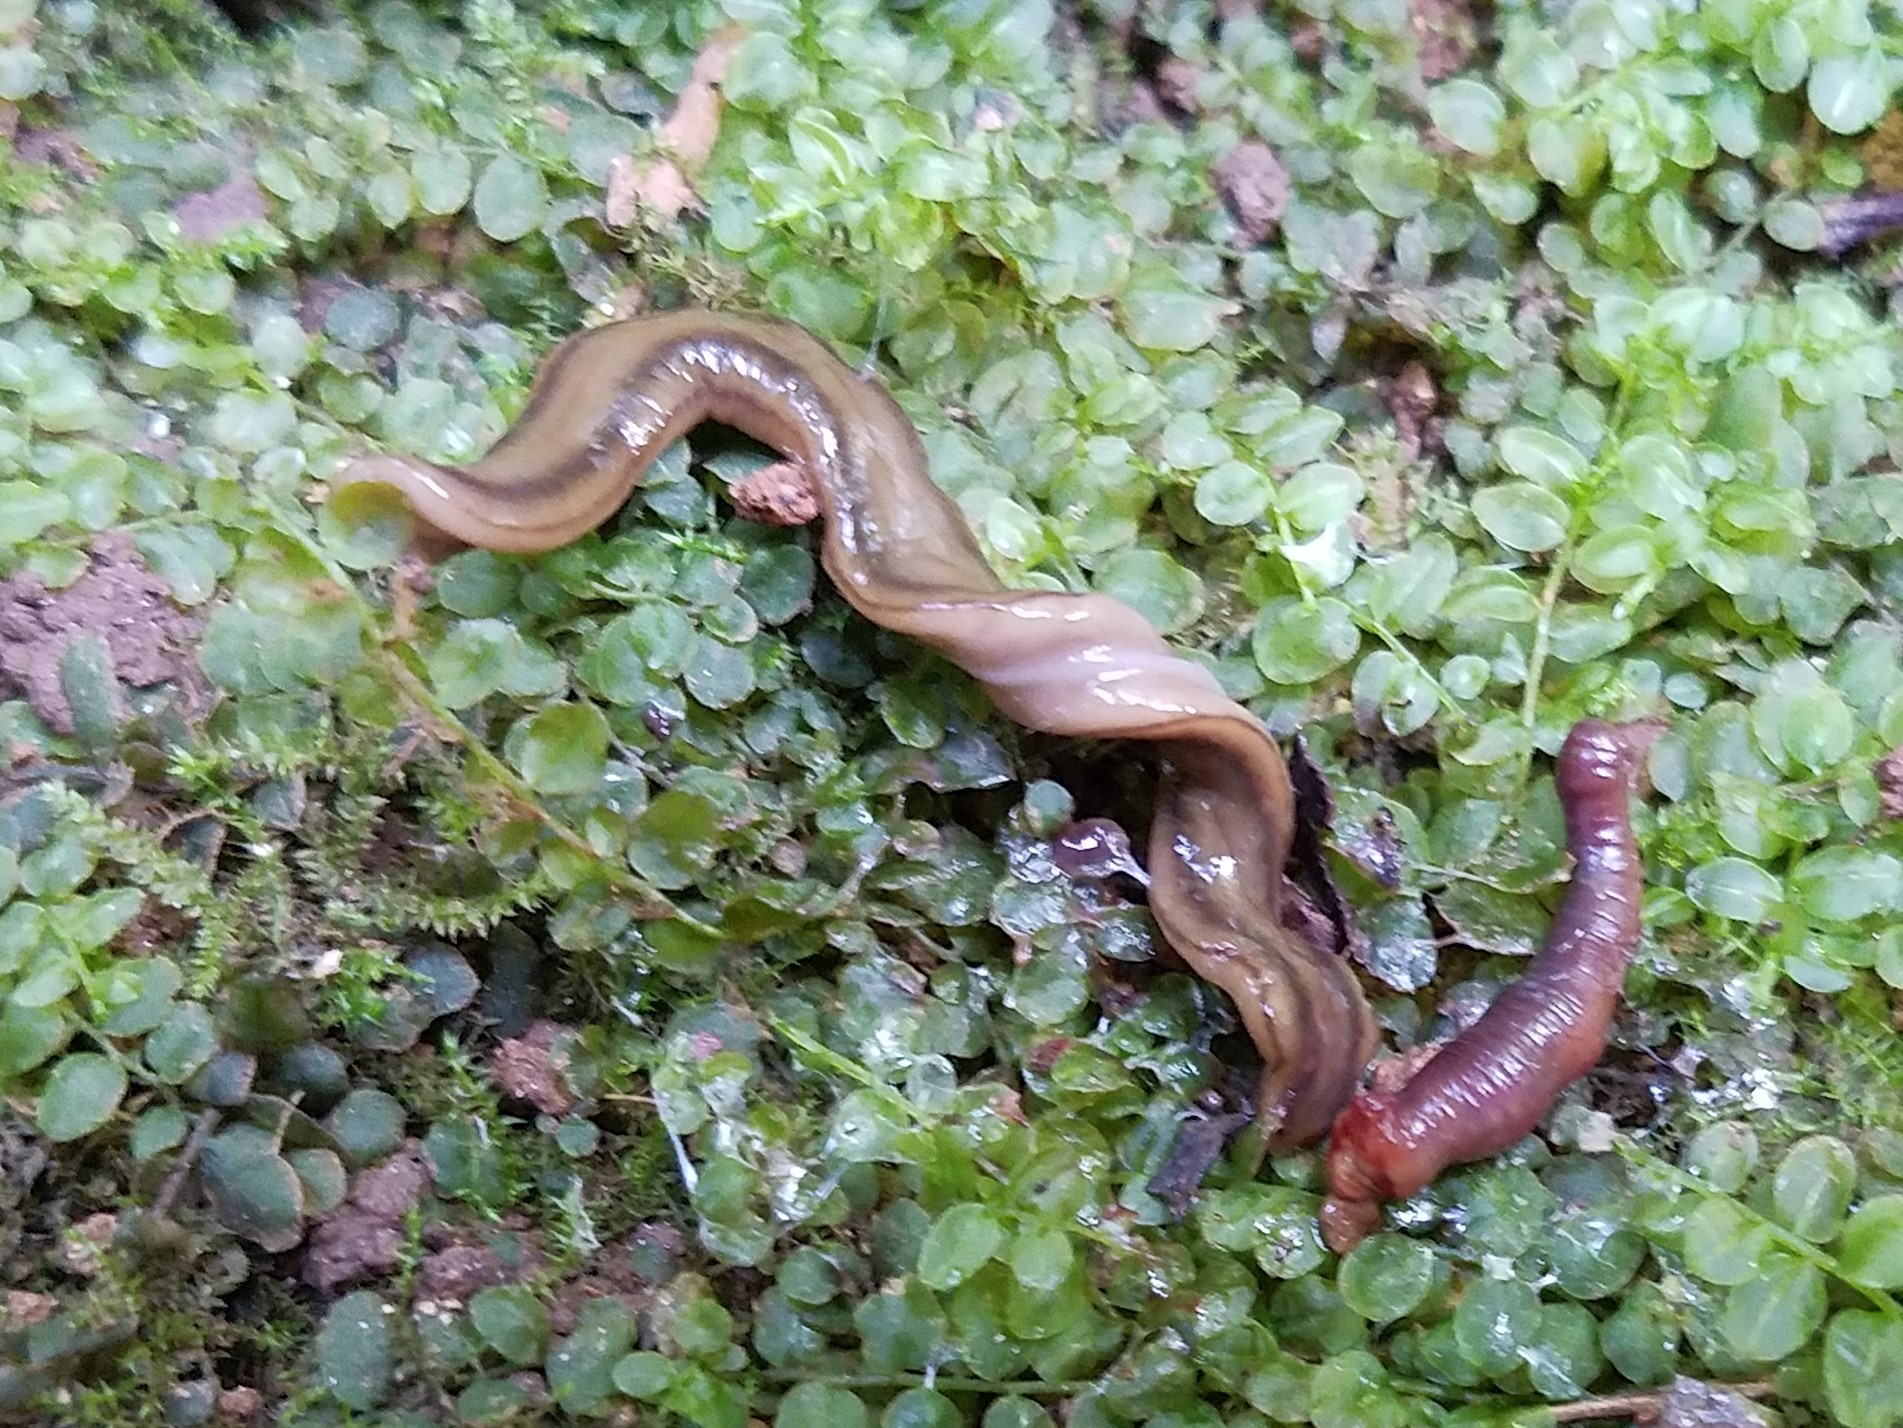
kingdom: Animalia
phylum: Platyhelminthes
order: Tricladida
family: Geoplanidae
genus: Bipalium
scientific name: Bipalium kewense
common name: Hammerhead flatworm
